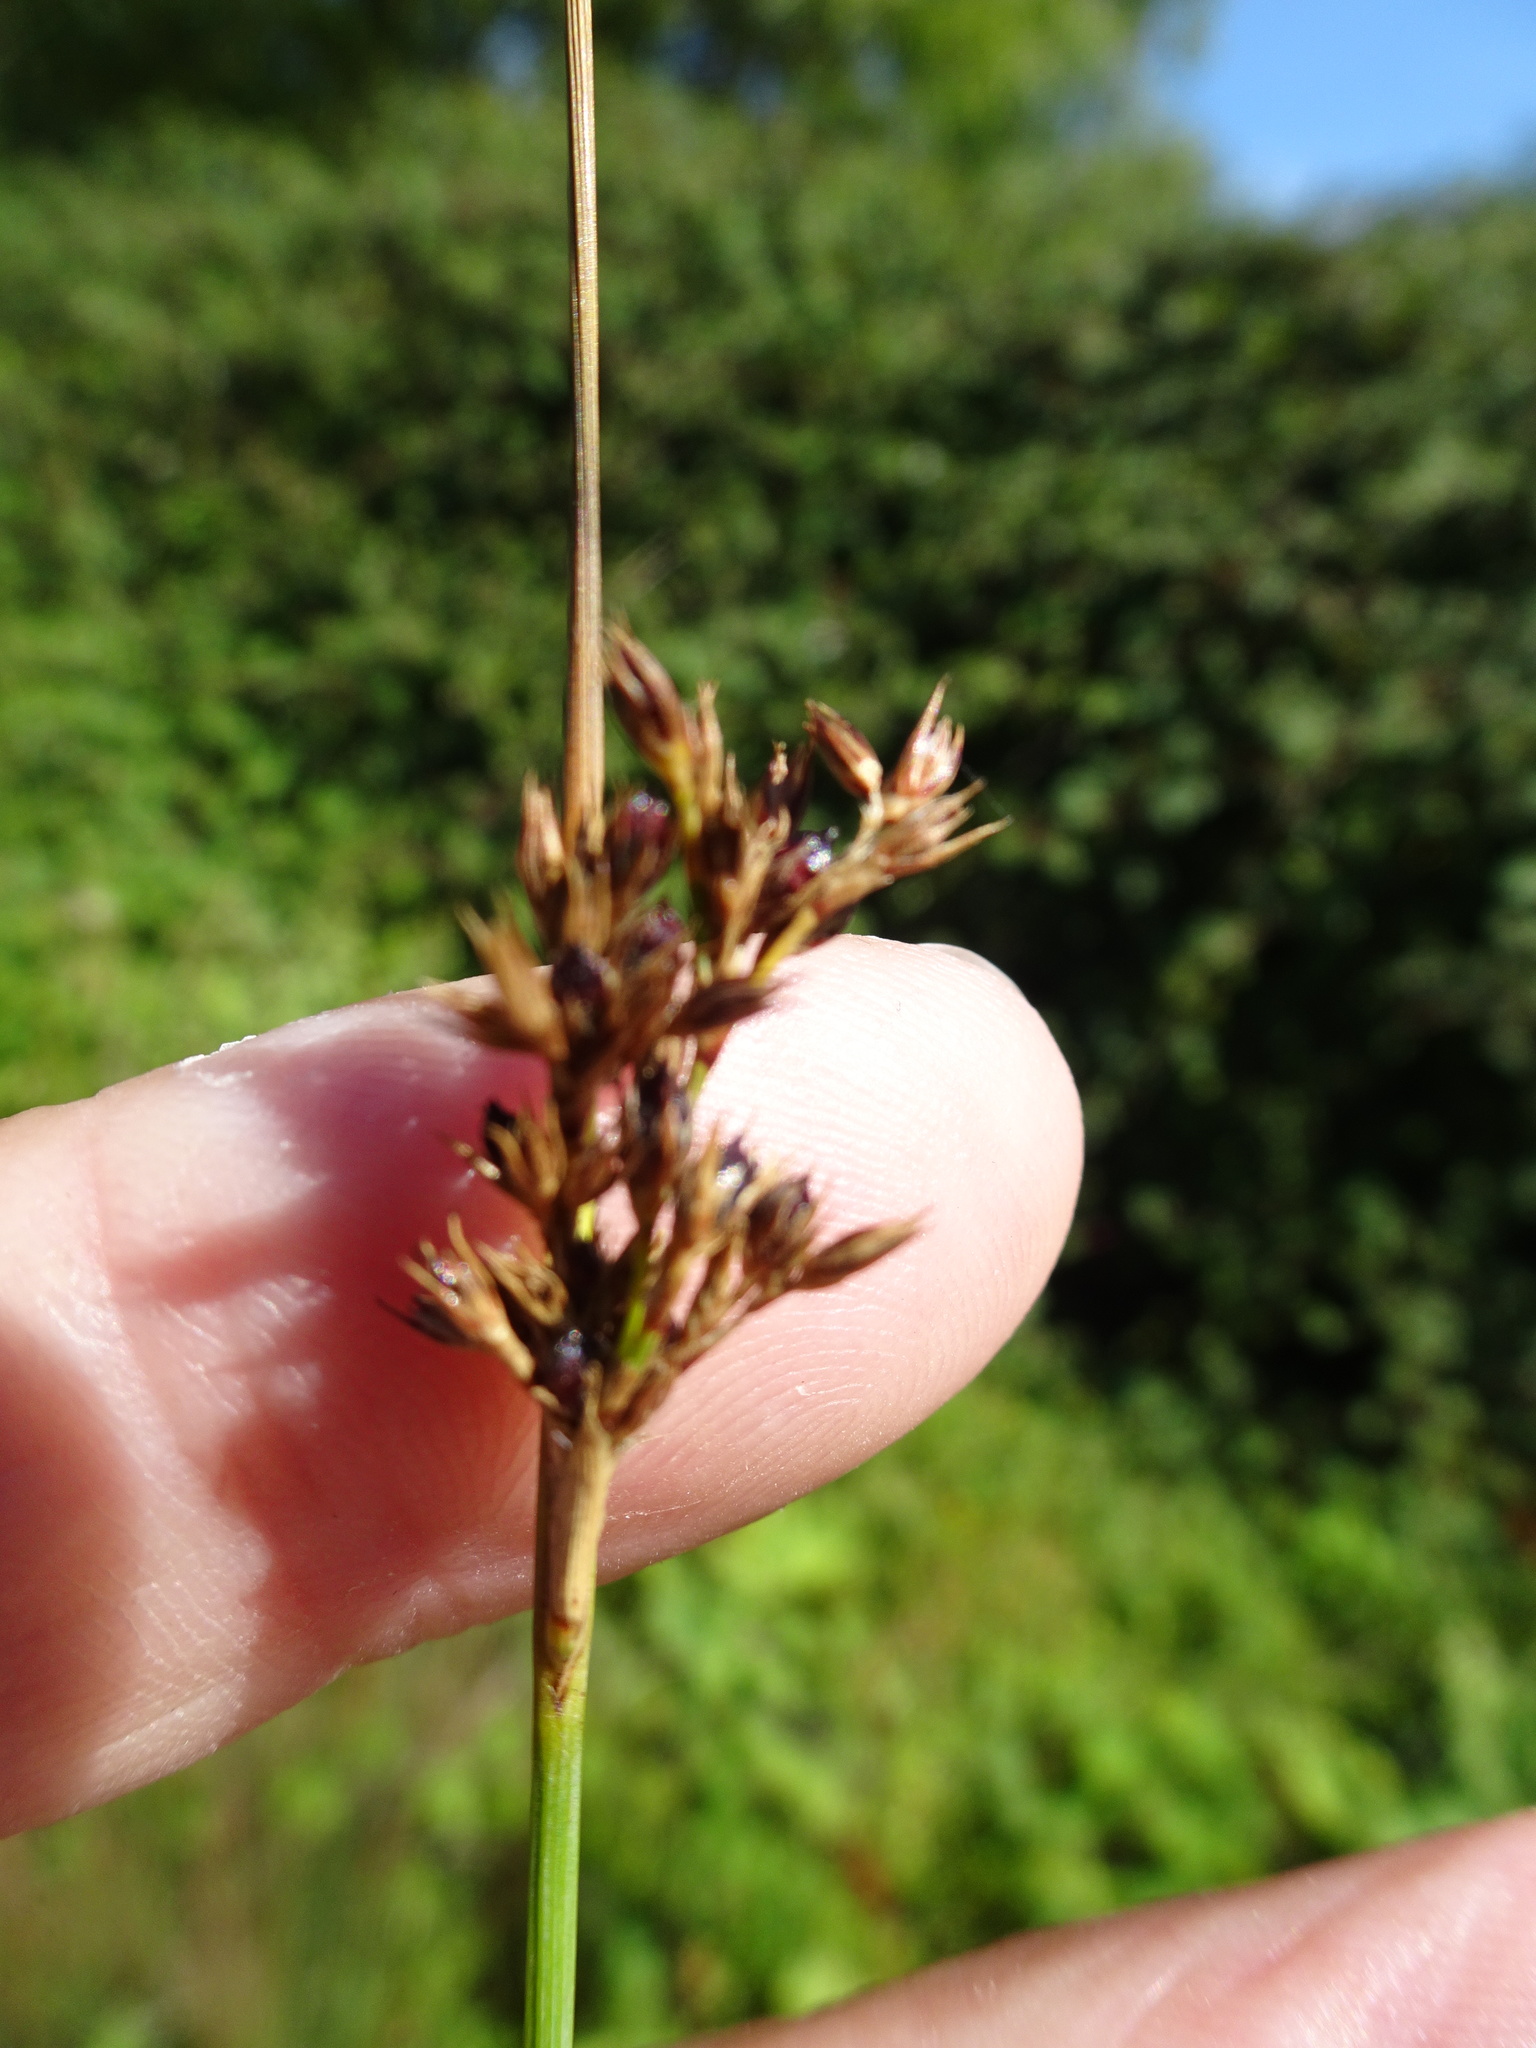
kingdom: Plantae
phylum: Tracheophyta
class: Liliopsida
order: Poales
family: Juncaceae
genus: Juncus
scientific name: Juncus inflexus
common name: Hard rush
